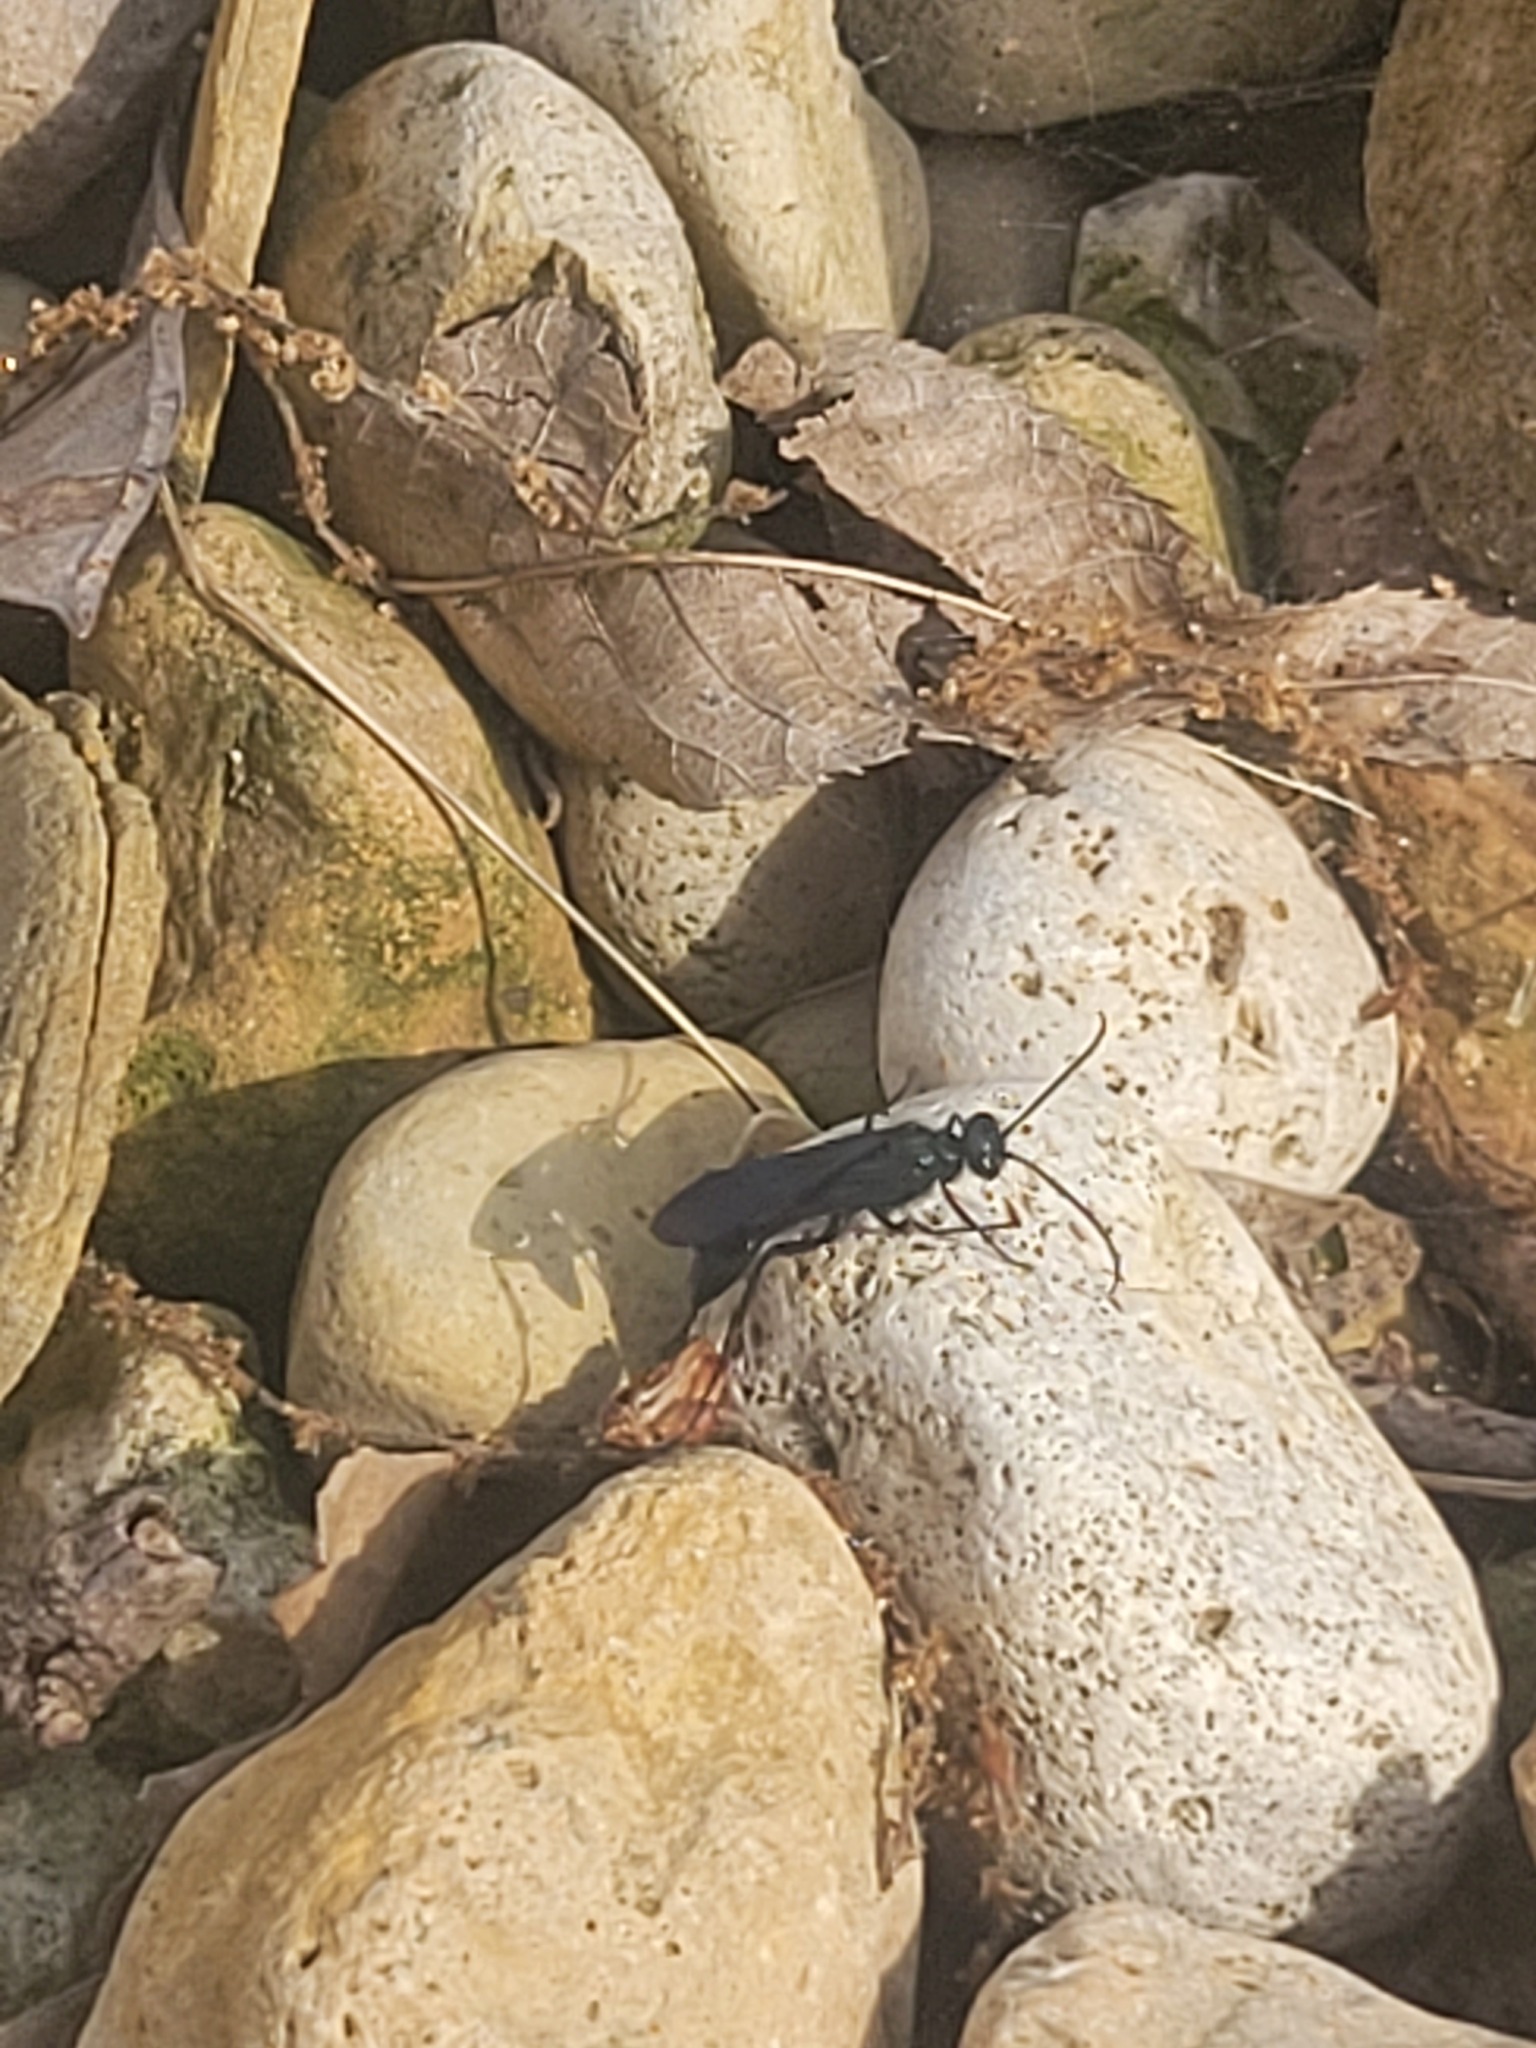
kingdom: Animalia
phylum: Arthropoda
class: Insecta
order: Hymenoptera
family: Sphecidae
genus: Chalybion
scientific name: Chalybion californicum
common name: Mud dauber
